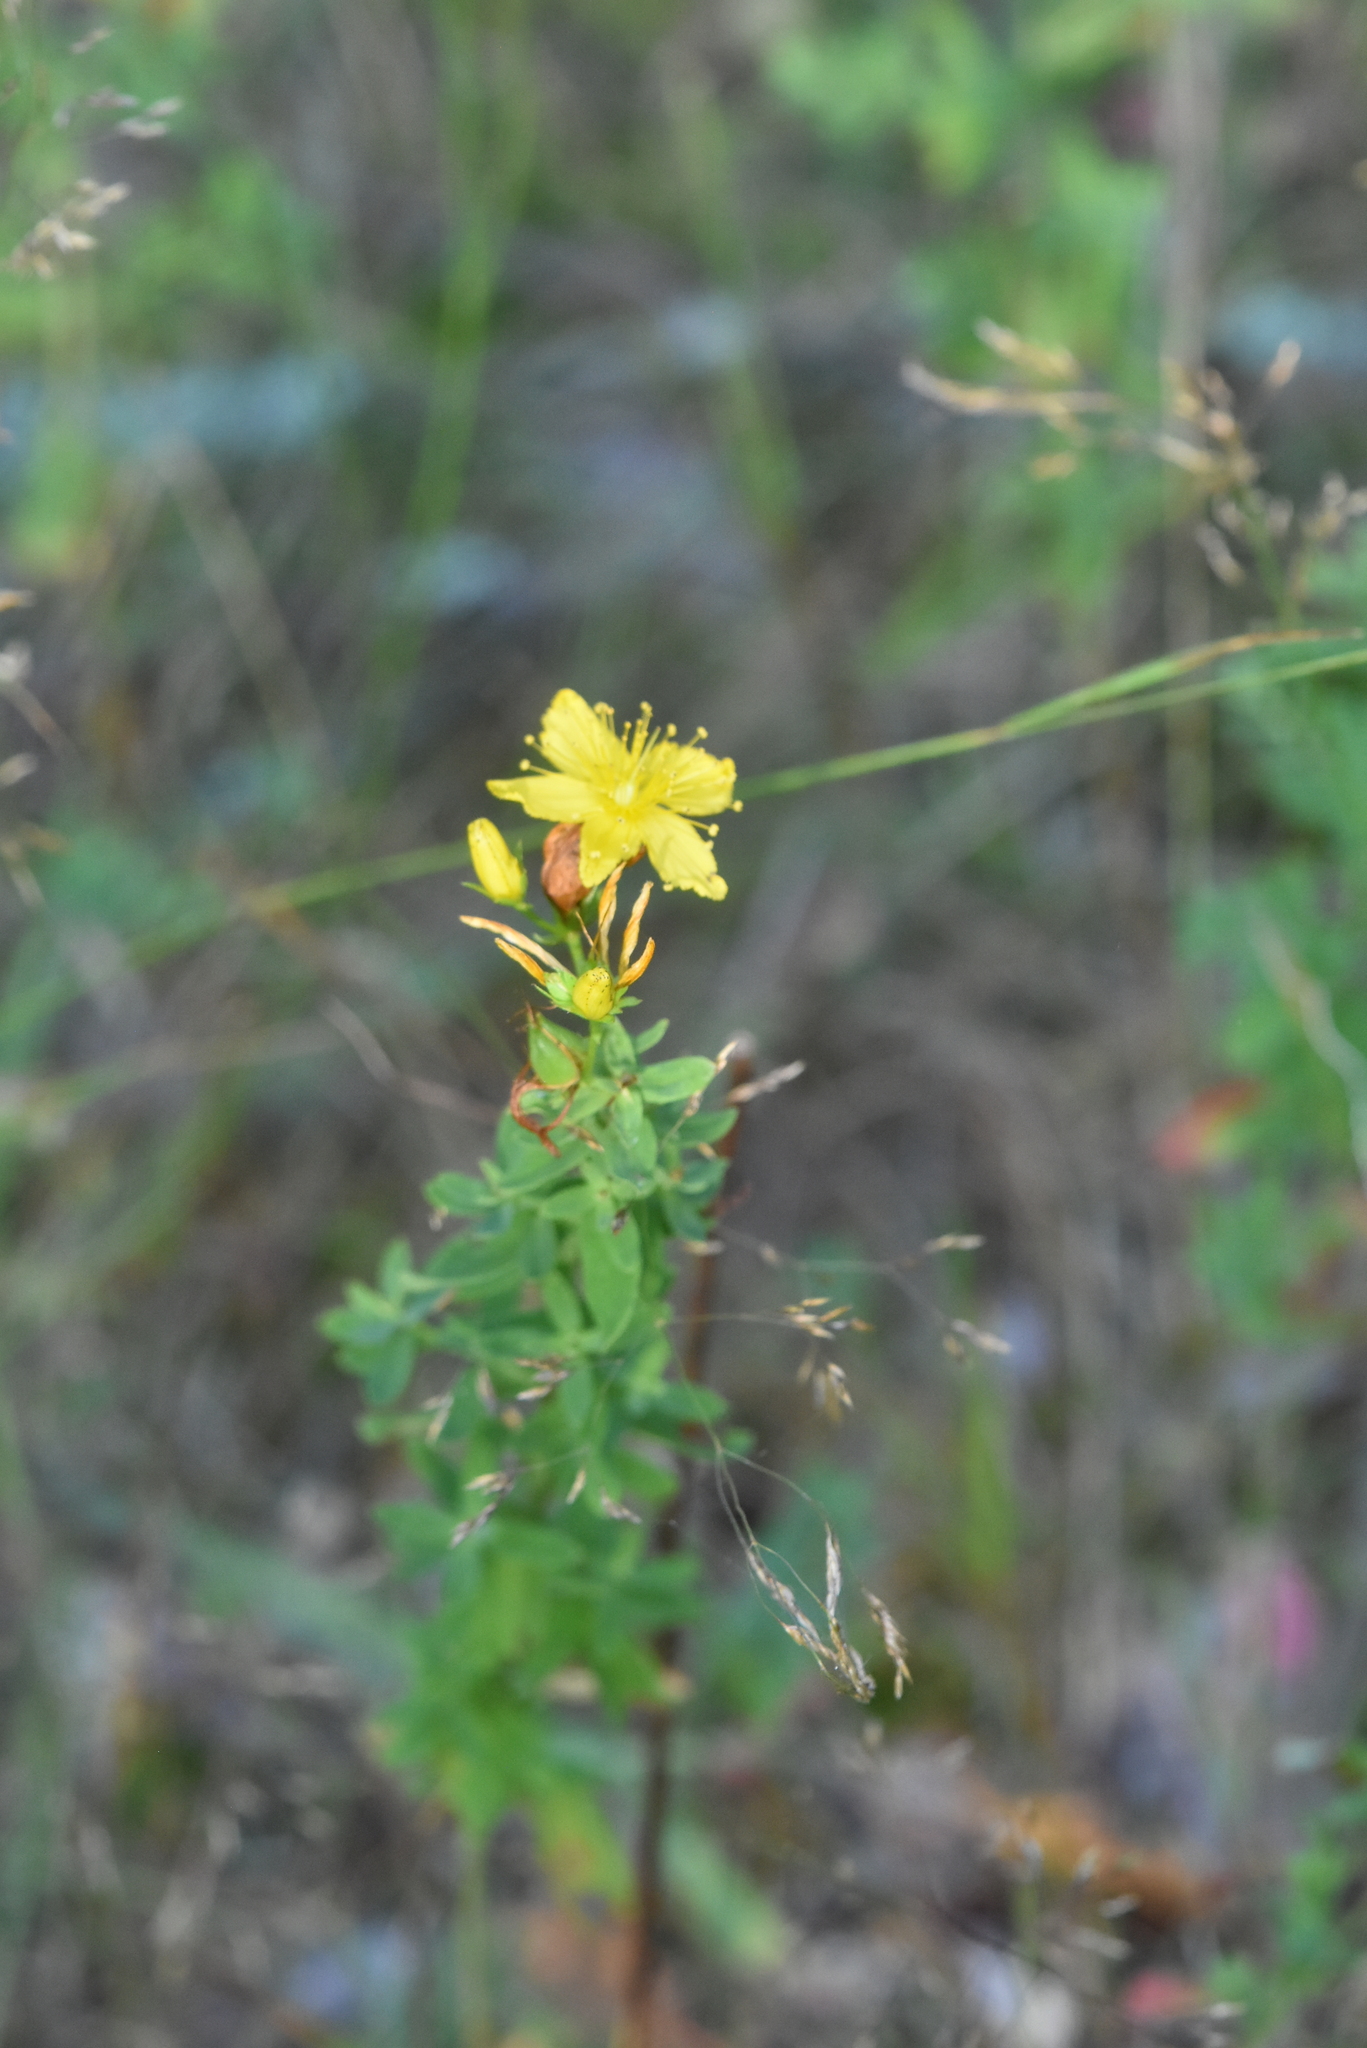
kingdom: Plantae
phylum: Tracheophyta
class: Magnoliopsida
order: Malpighiales
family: Hypericaceae
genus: Hypericum
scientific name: Hypericum perforatum
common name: Common st. johnswort
